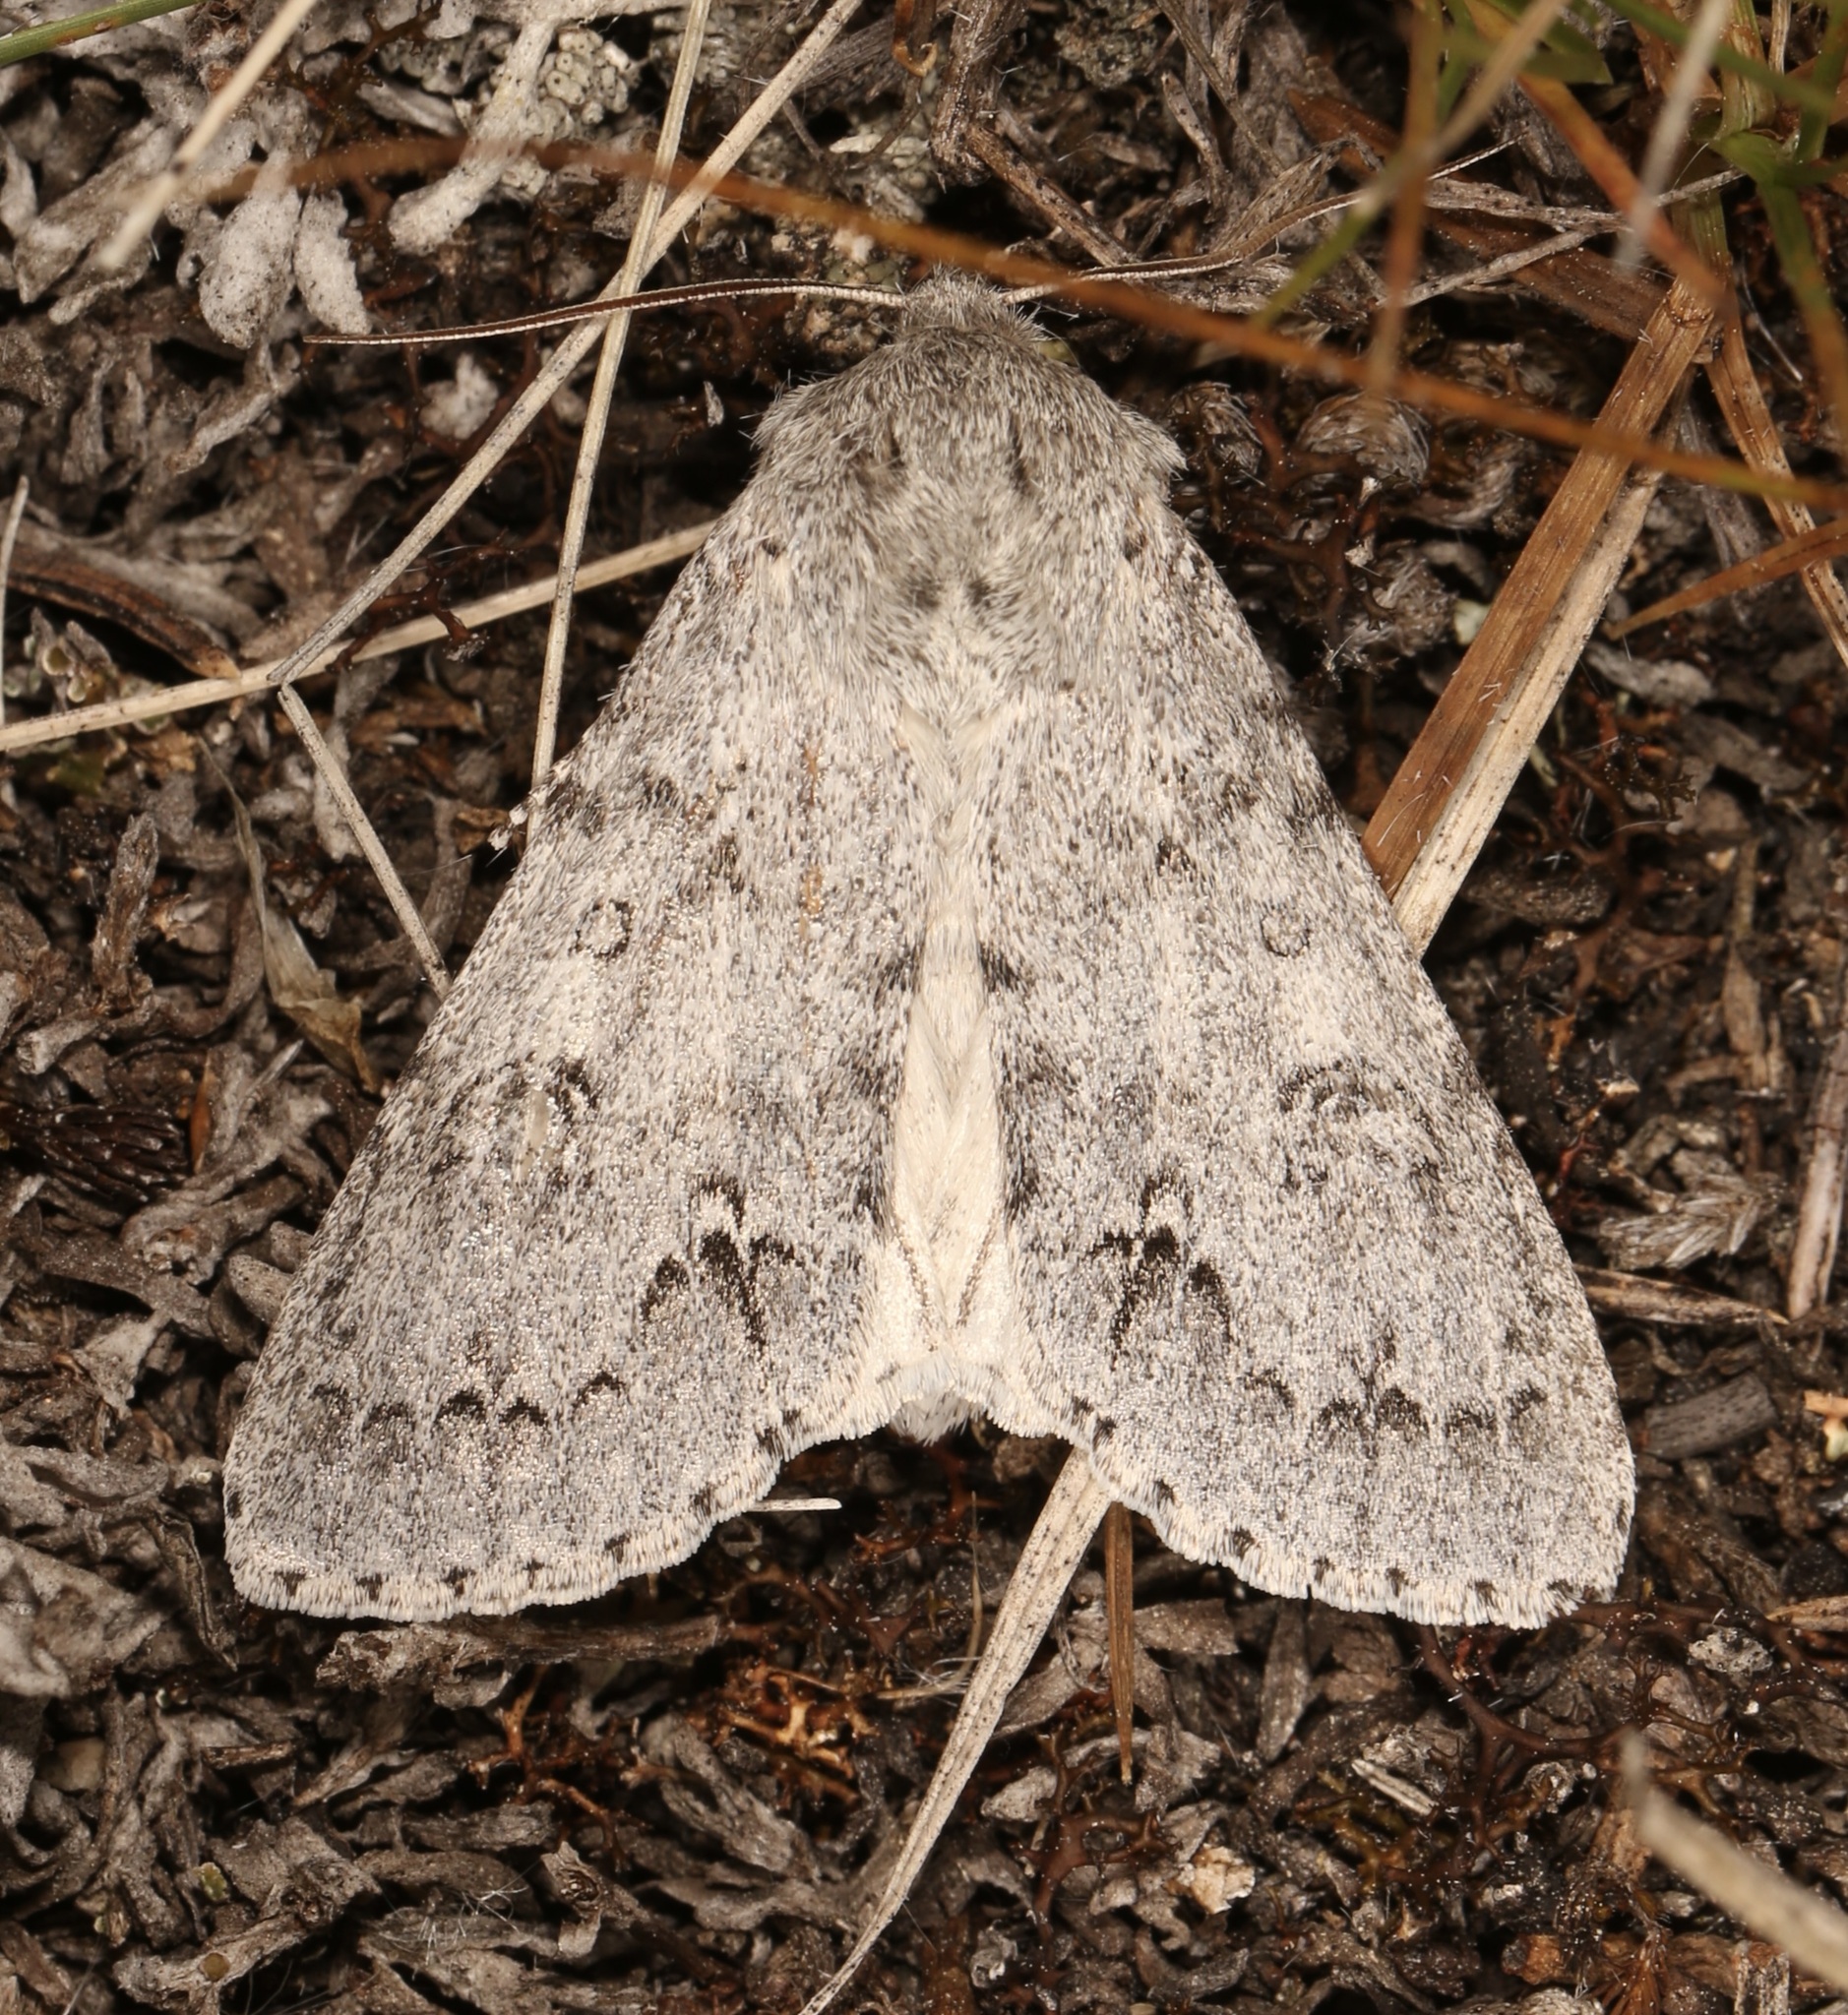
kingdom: Animalia
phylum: Arthropoda
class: Insecta
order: Lepidoptera
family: Noctuidae
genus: Acronicta
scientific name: Acronicta insita
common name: Large gray dagger
